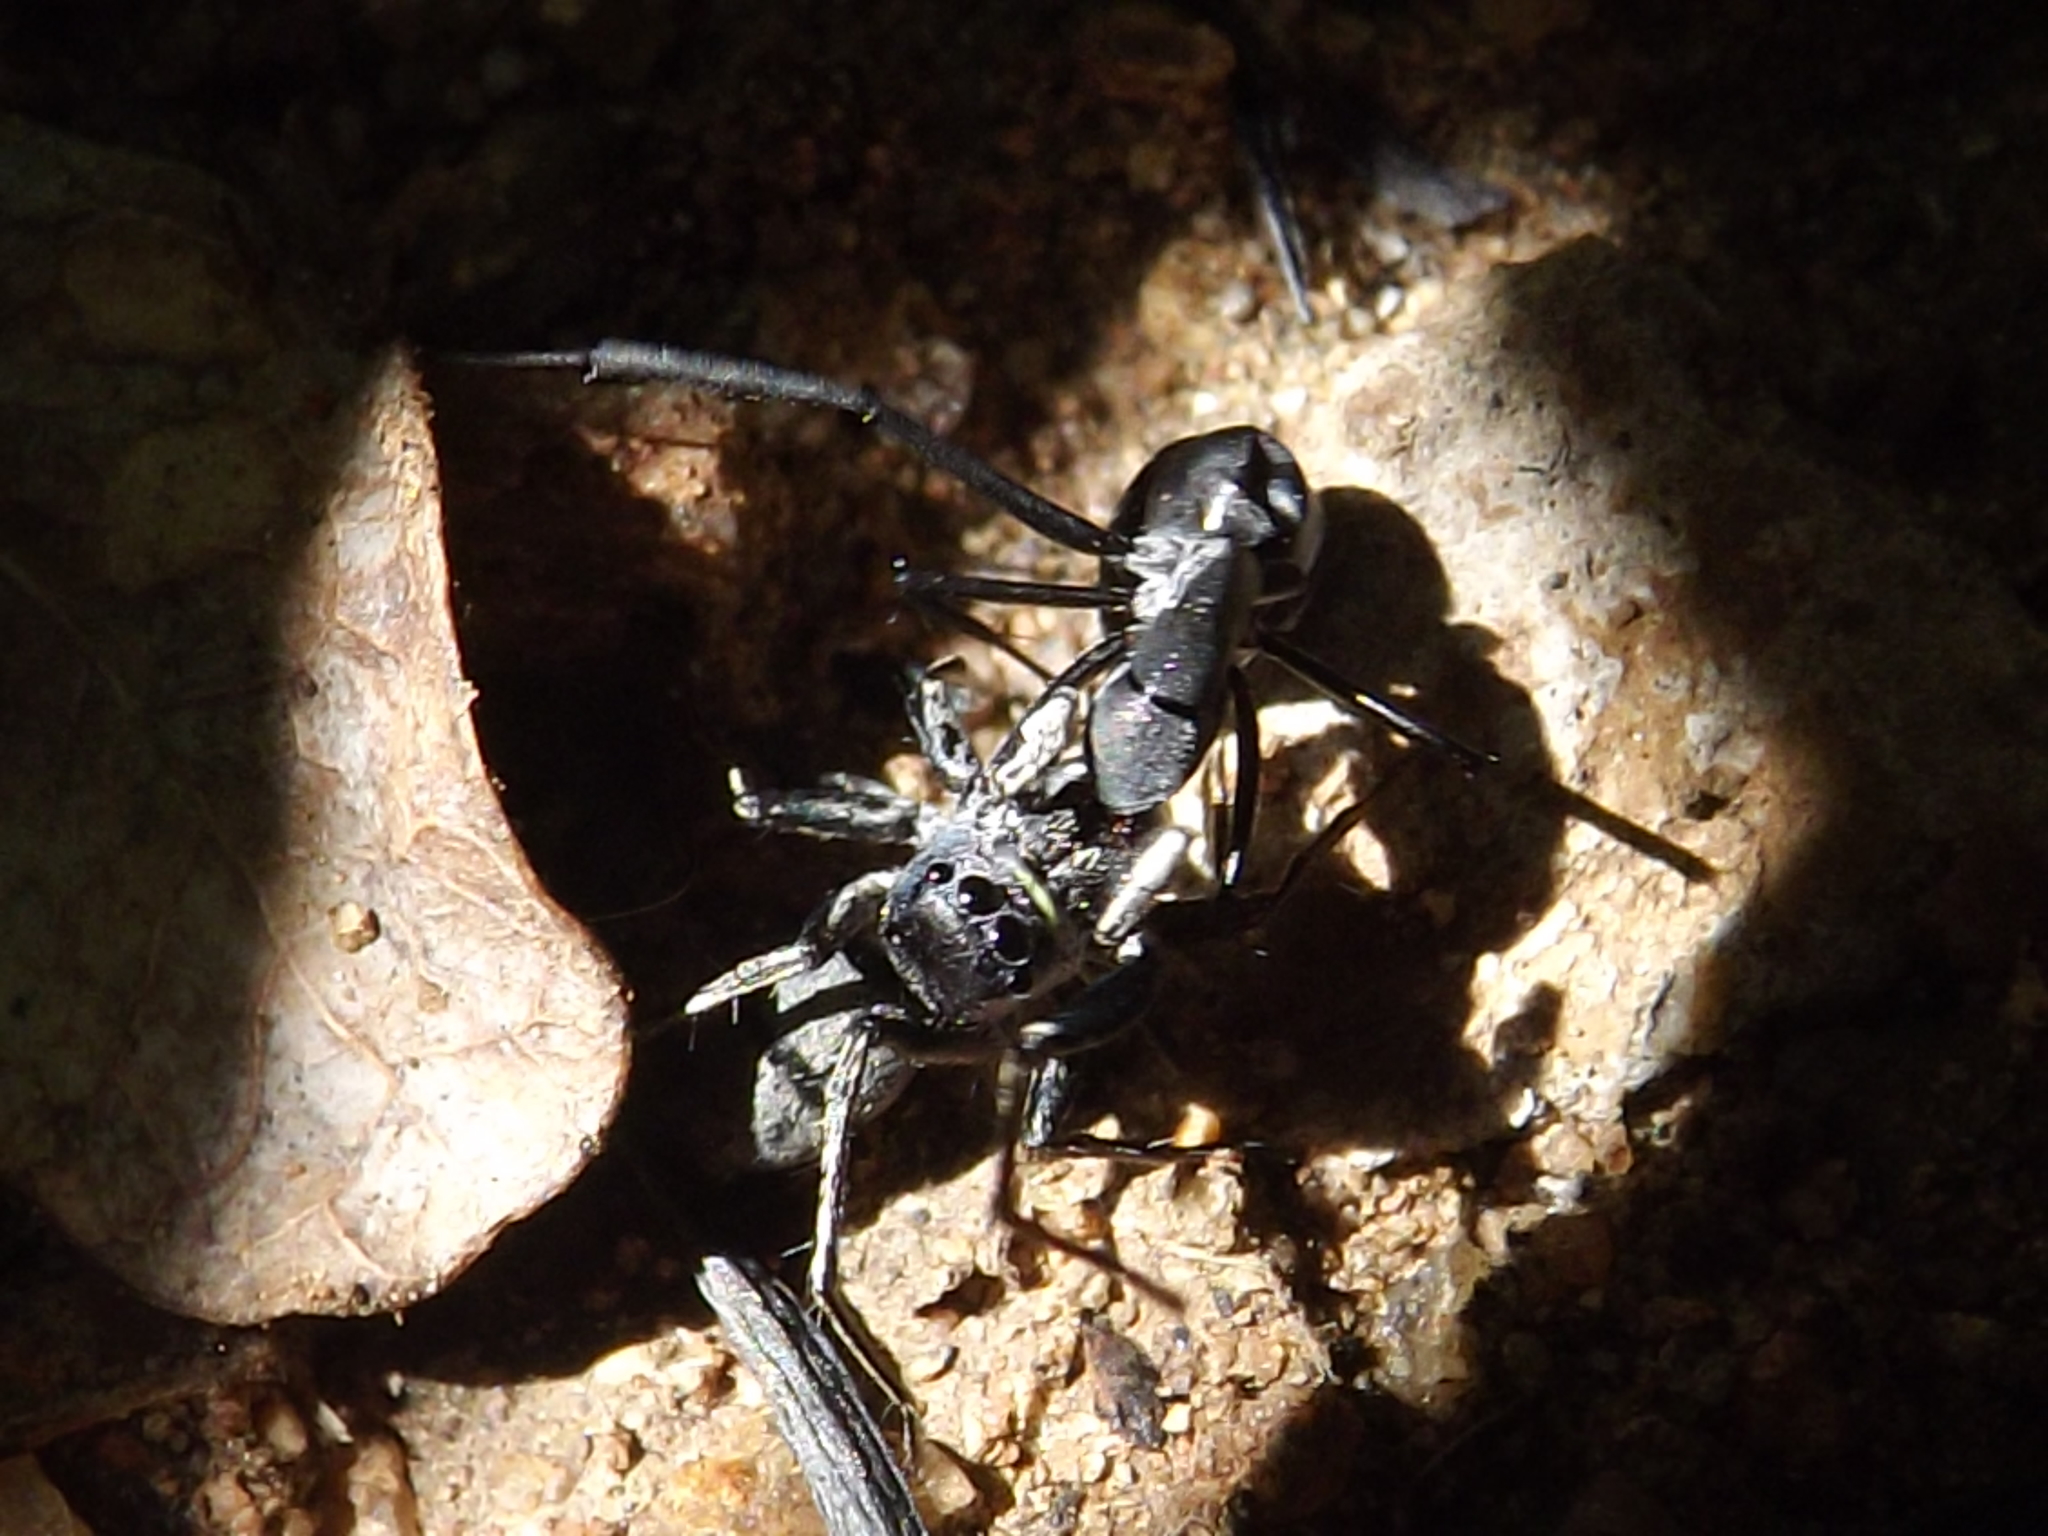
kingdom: Animalia
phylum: Arthropoda
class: Arachnida
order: Araneae
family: Salticidae
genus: Mexcala
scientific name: Mexcala
